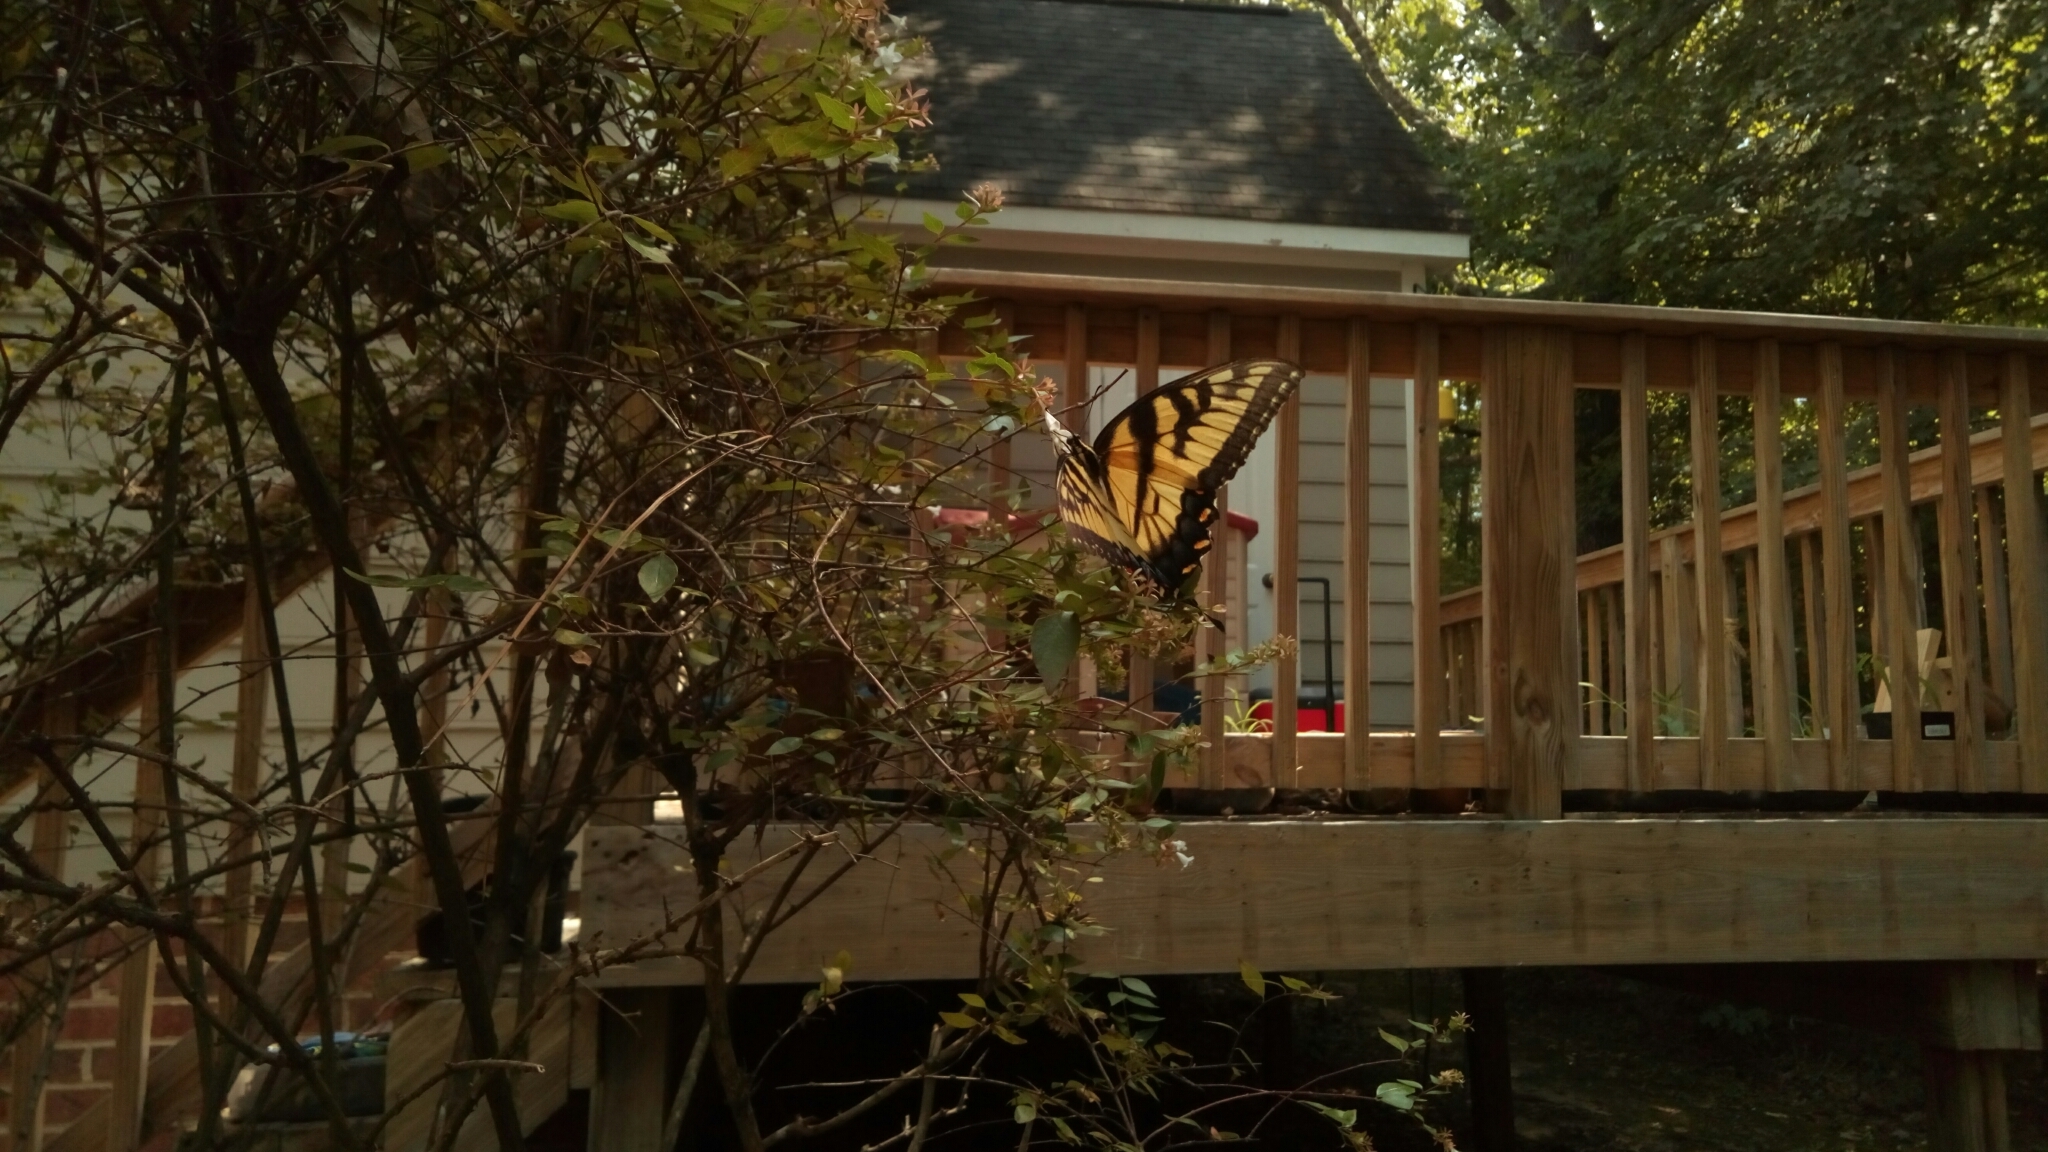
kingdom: Animalia
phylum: Arthropoda
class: Insecta
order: Lepidoptera
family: Papilionidae
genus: Papilio
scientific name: Papilio glaucus
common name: Tiger swallowtail
